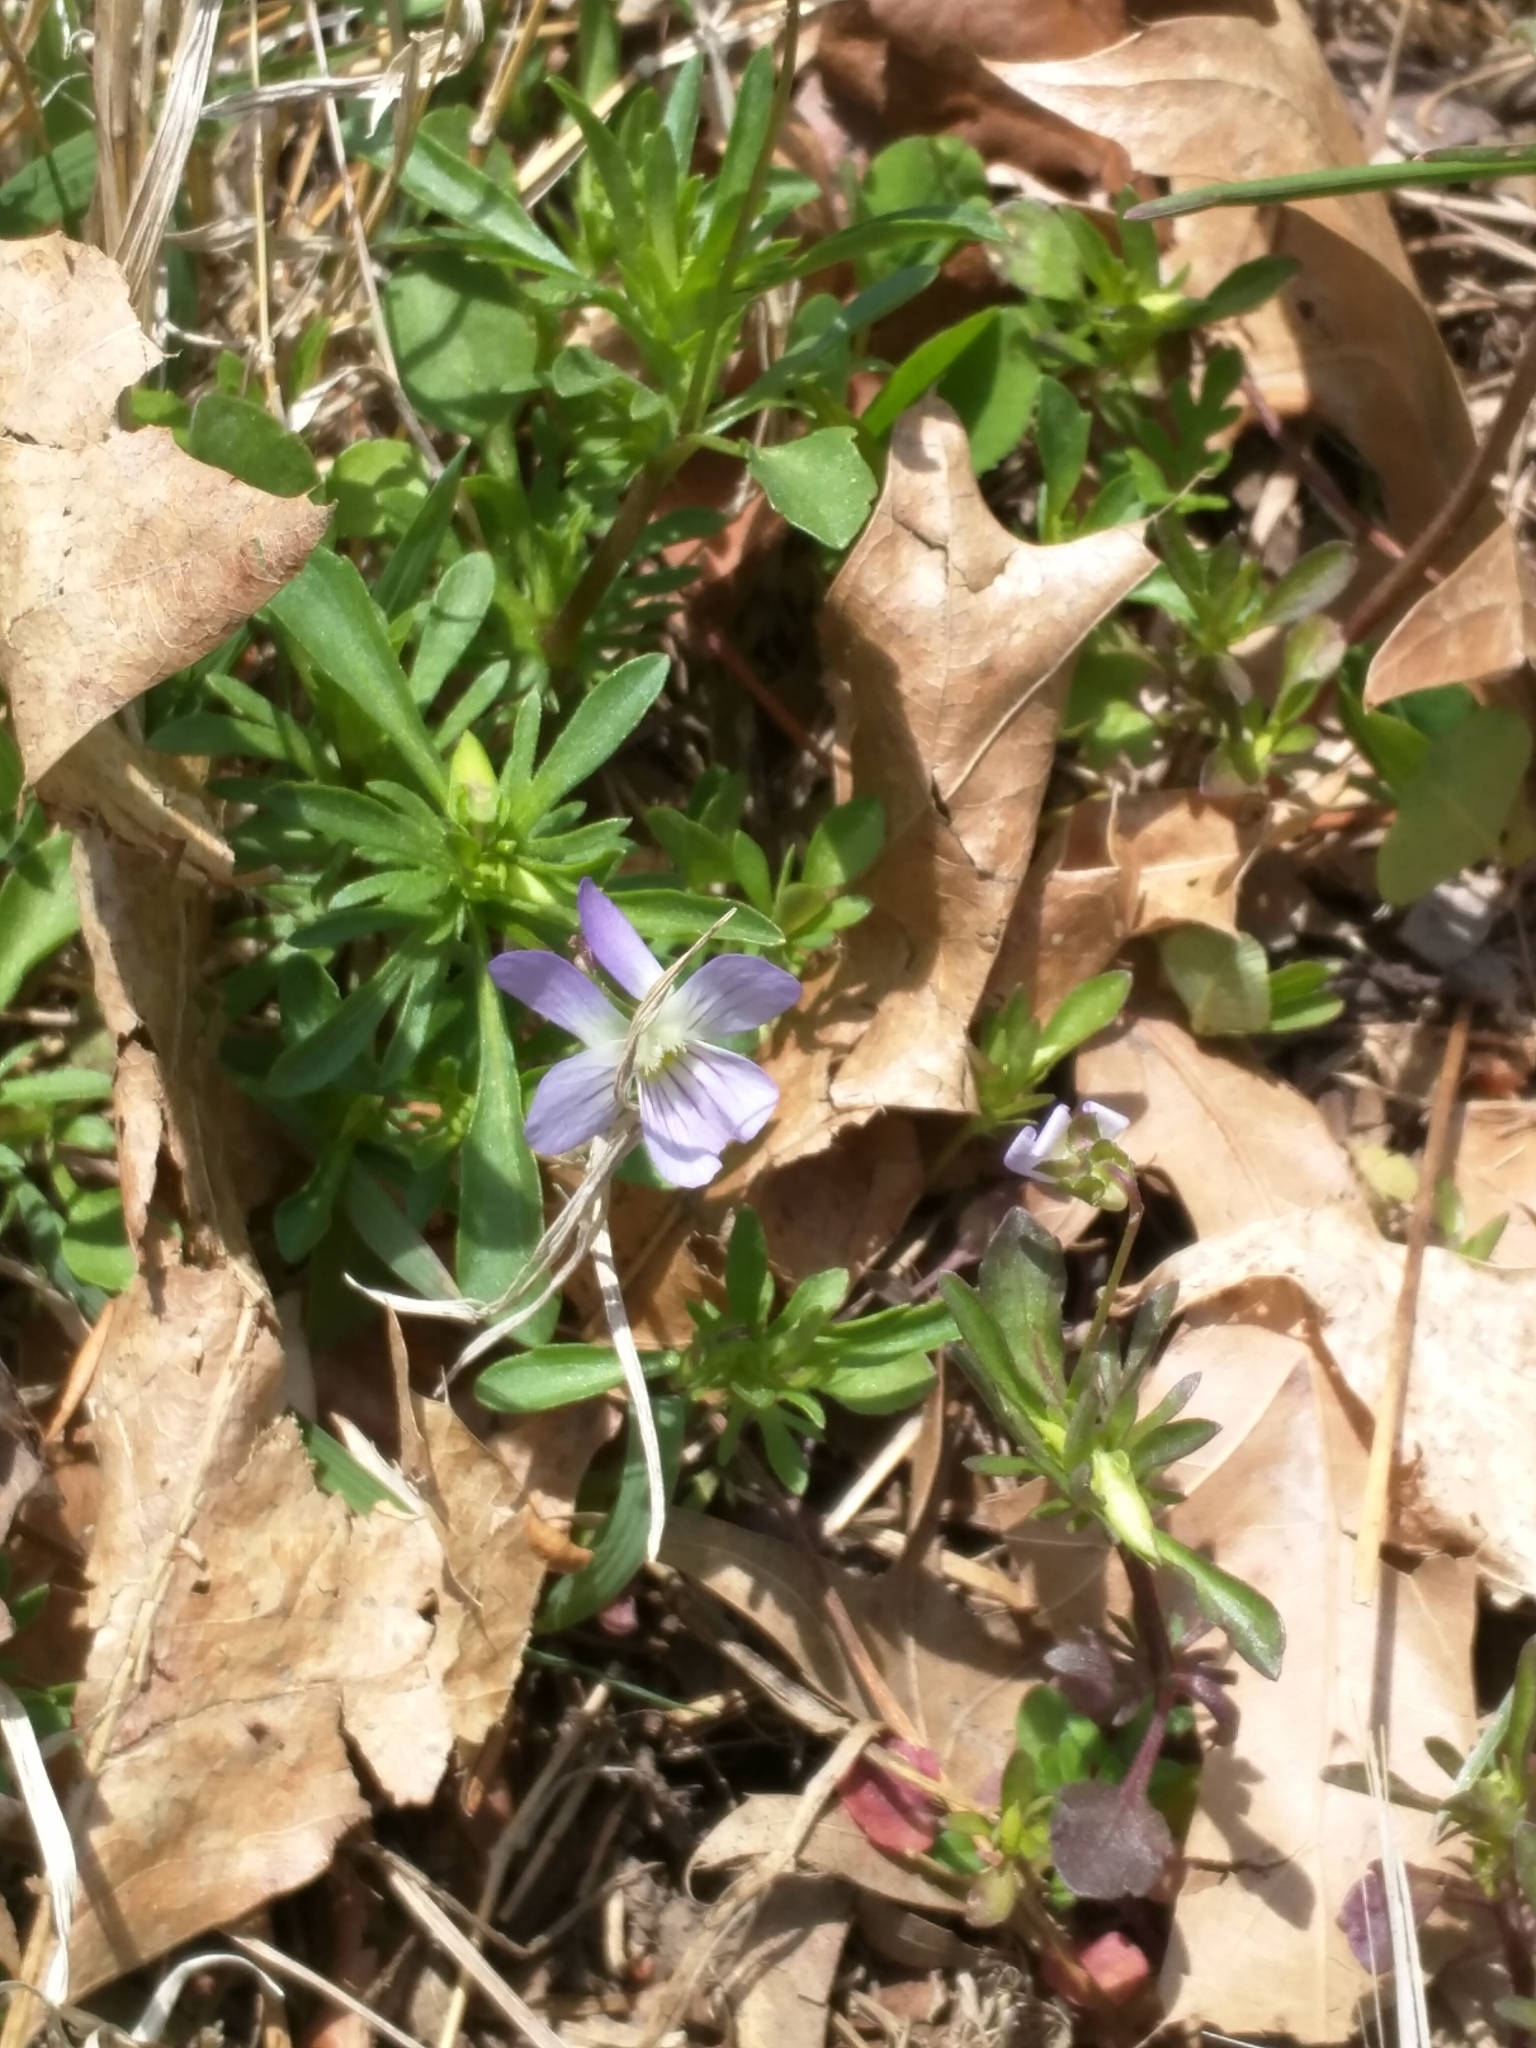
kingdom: Plantae
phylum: Tracheophyta
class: Magnoliopsida
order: Malpighiales
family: Violaceae
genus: Viola
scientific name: Viola rafinesquei
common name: American field pansy
